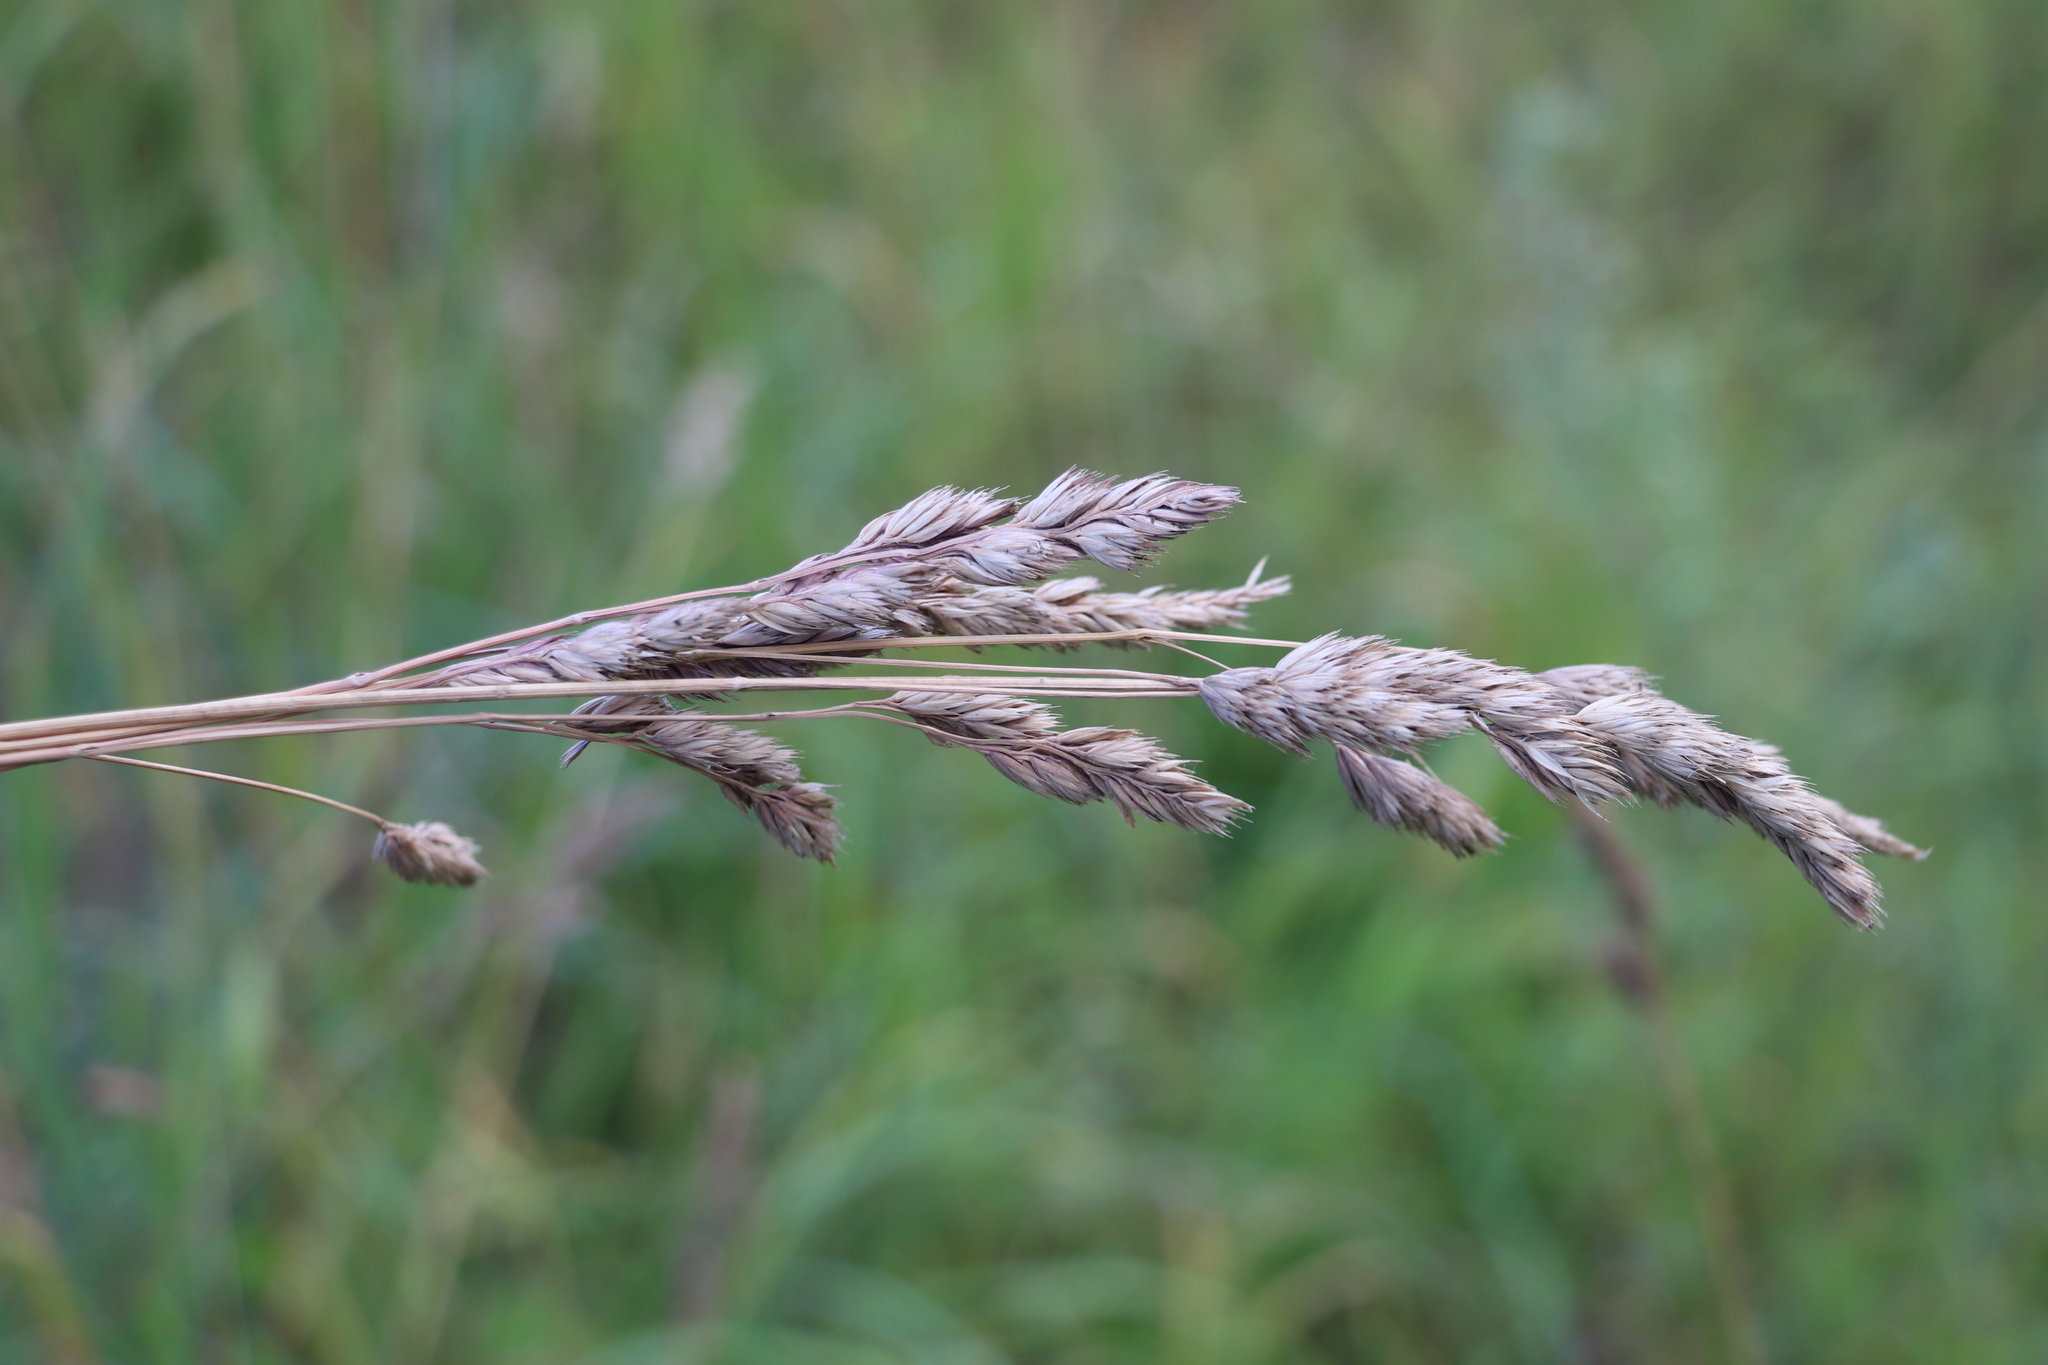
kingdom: Plantae
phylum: Tracheophyta
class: Liliopsida
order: Poales
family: Poaceae
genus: Dactylis
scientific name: Dactylis glomerata
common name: Orchardgrass
